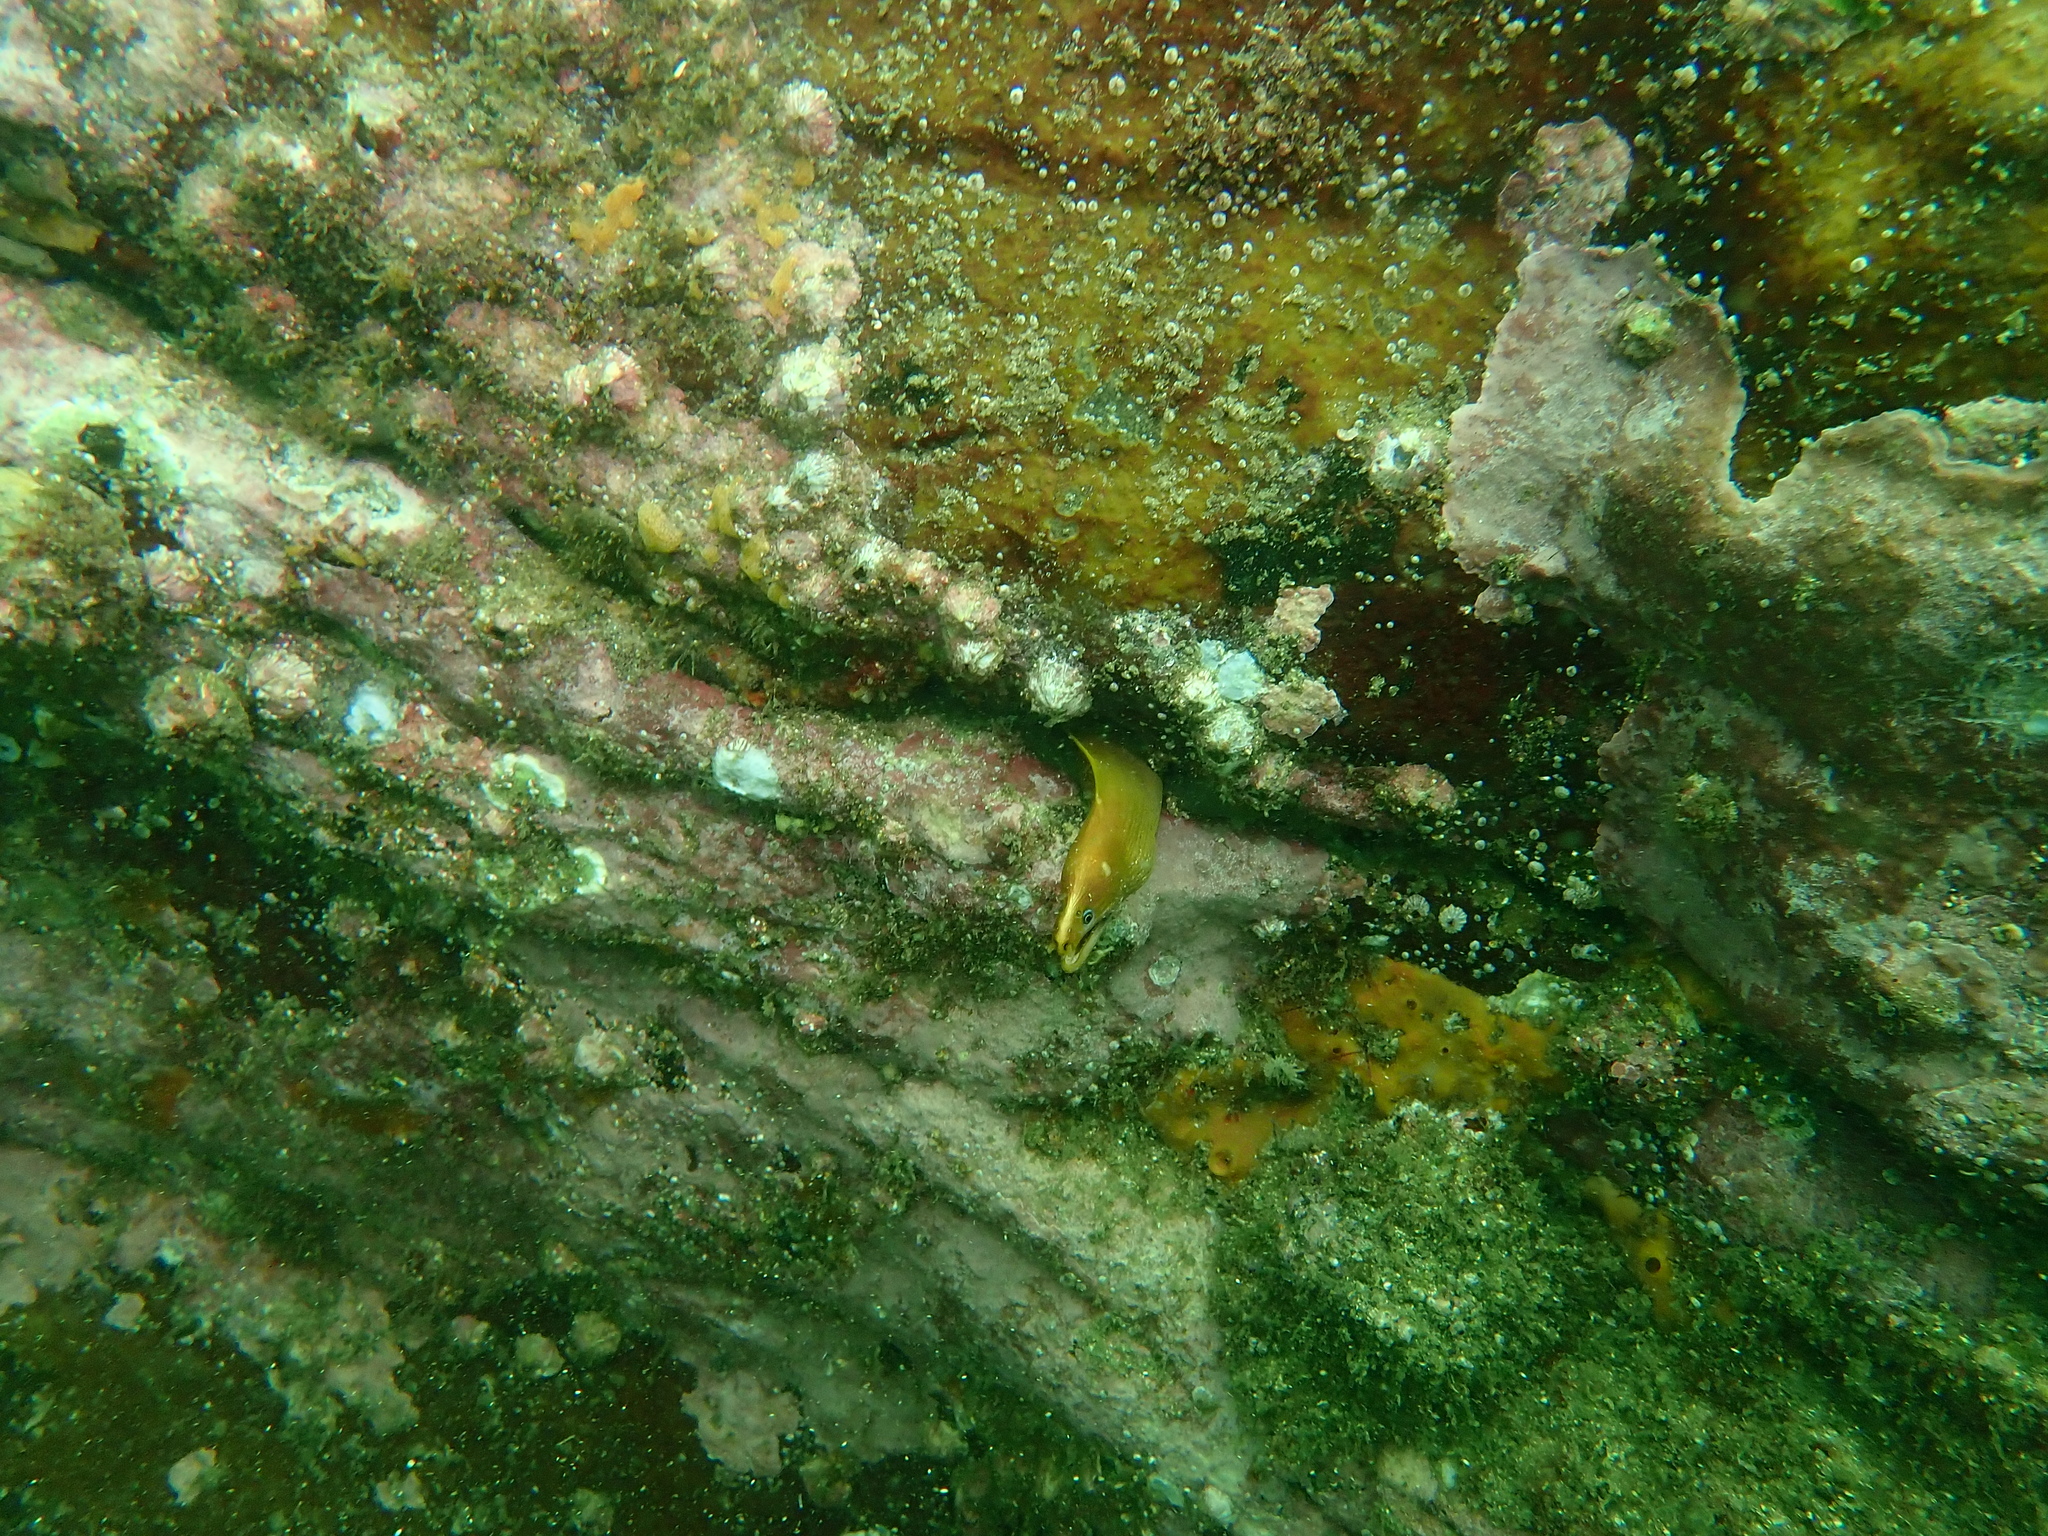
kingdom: Animalia
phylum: Chordata
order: Anguilliformes
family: Muraenidae
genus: Gymnothorax
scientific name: Gymnothorax prasinus
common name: Yellow moray
